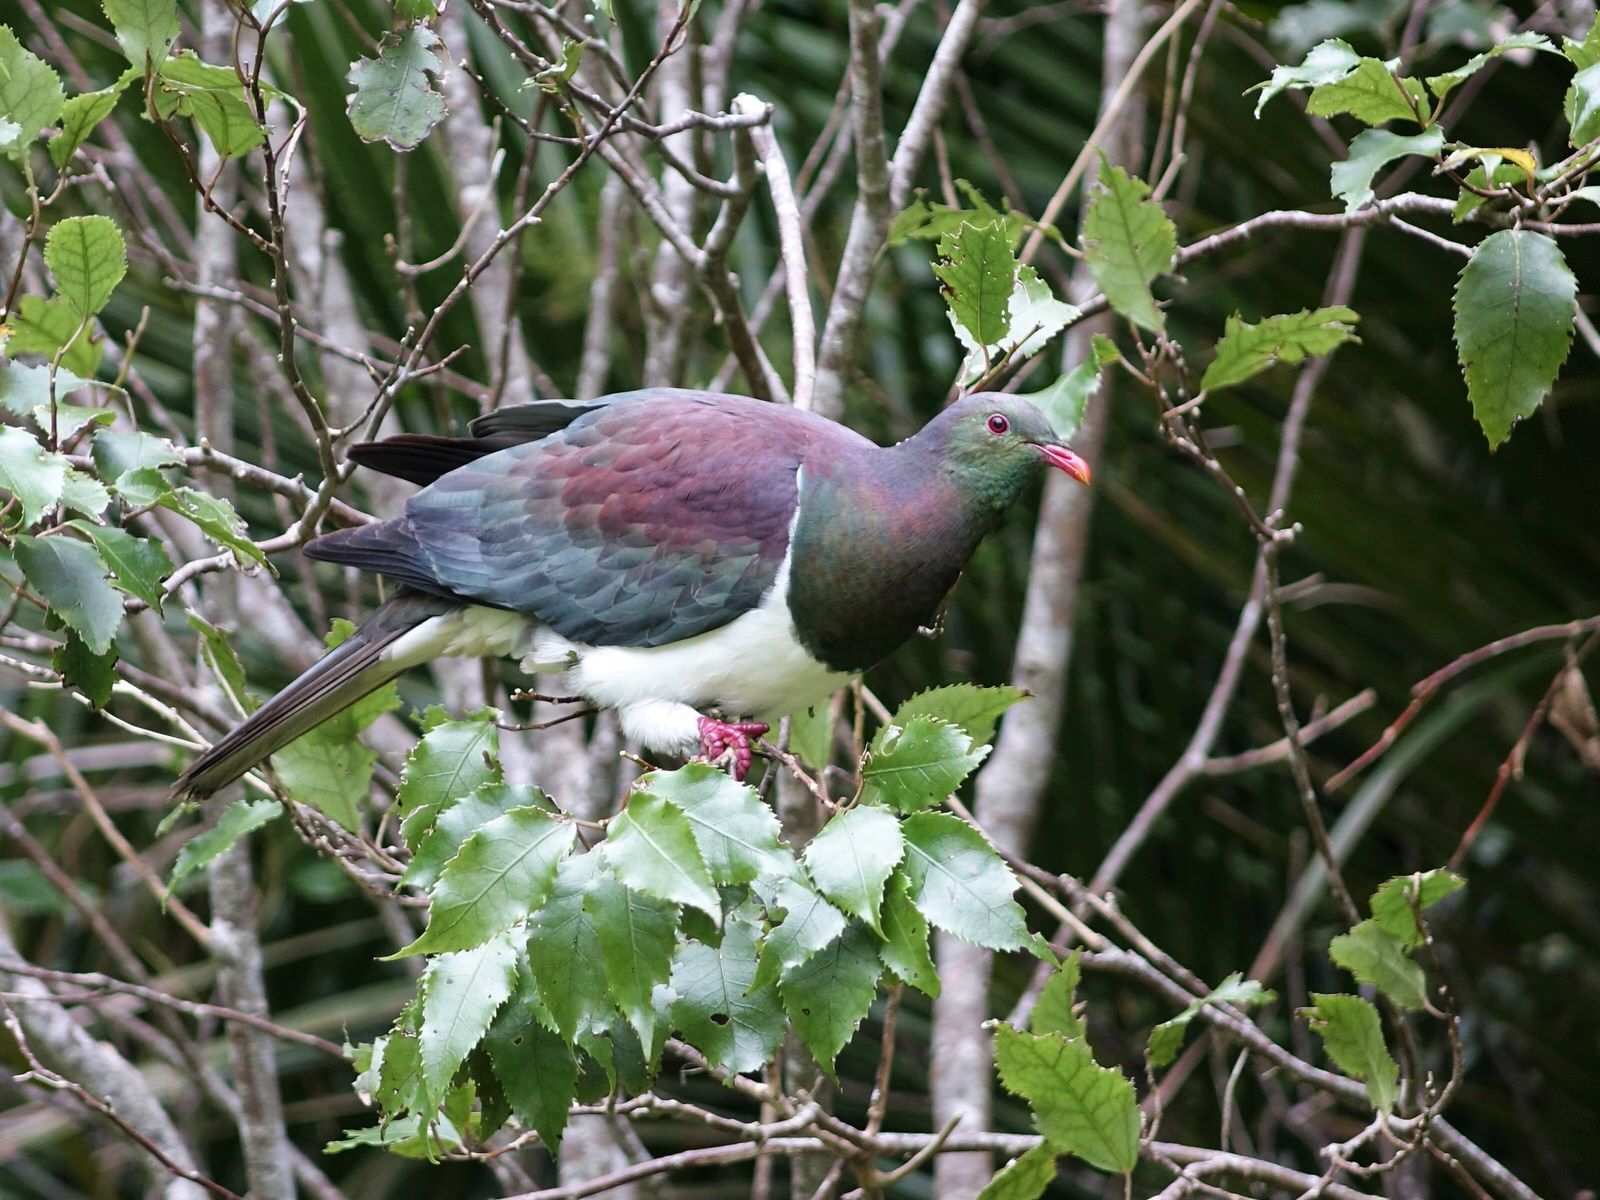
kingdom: Animalia
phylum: Chordata
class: Aves
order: Columbiformes
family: Columbidae
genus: Hemiphaga
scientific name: Hemiphaga novaeseelandiae
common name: New zealand pigeon
